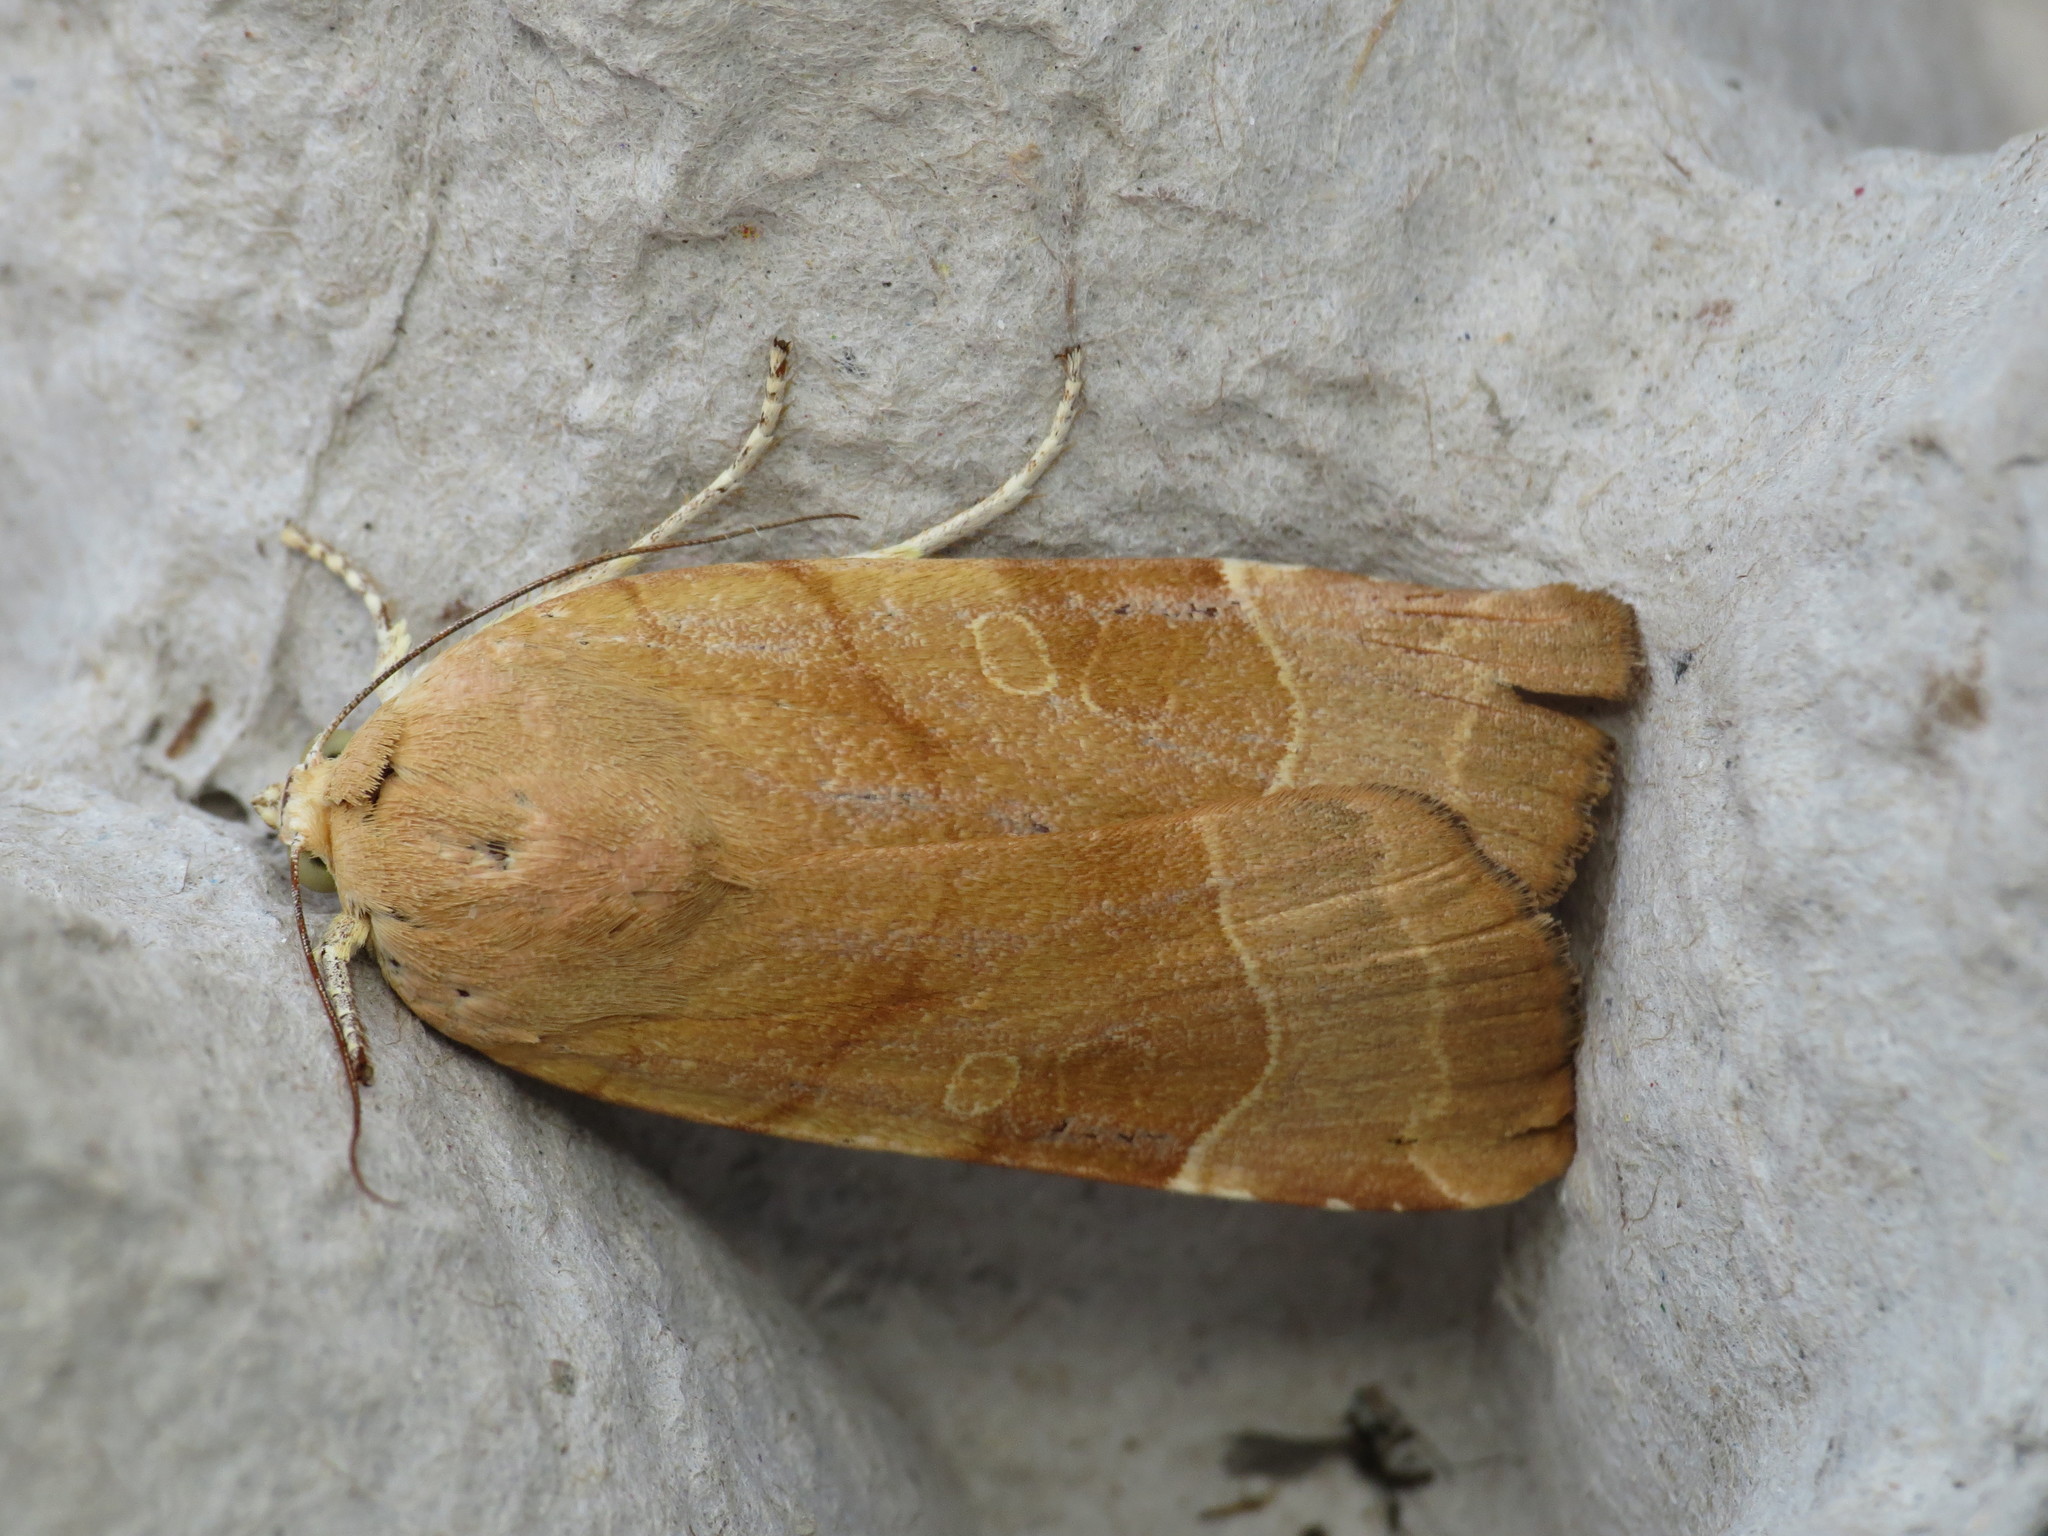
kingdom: Animalia
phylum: Arthropoda
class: Insecta
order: Lepidoptera
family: Noctuidae
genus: Noctua
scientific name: Noctua fimbriata
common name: Broad-bordered yellow underwing
